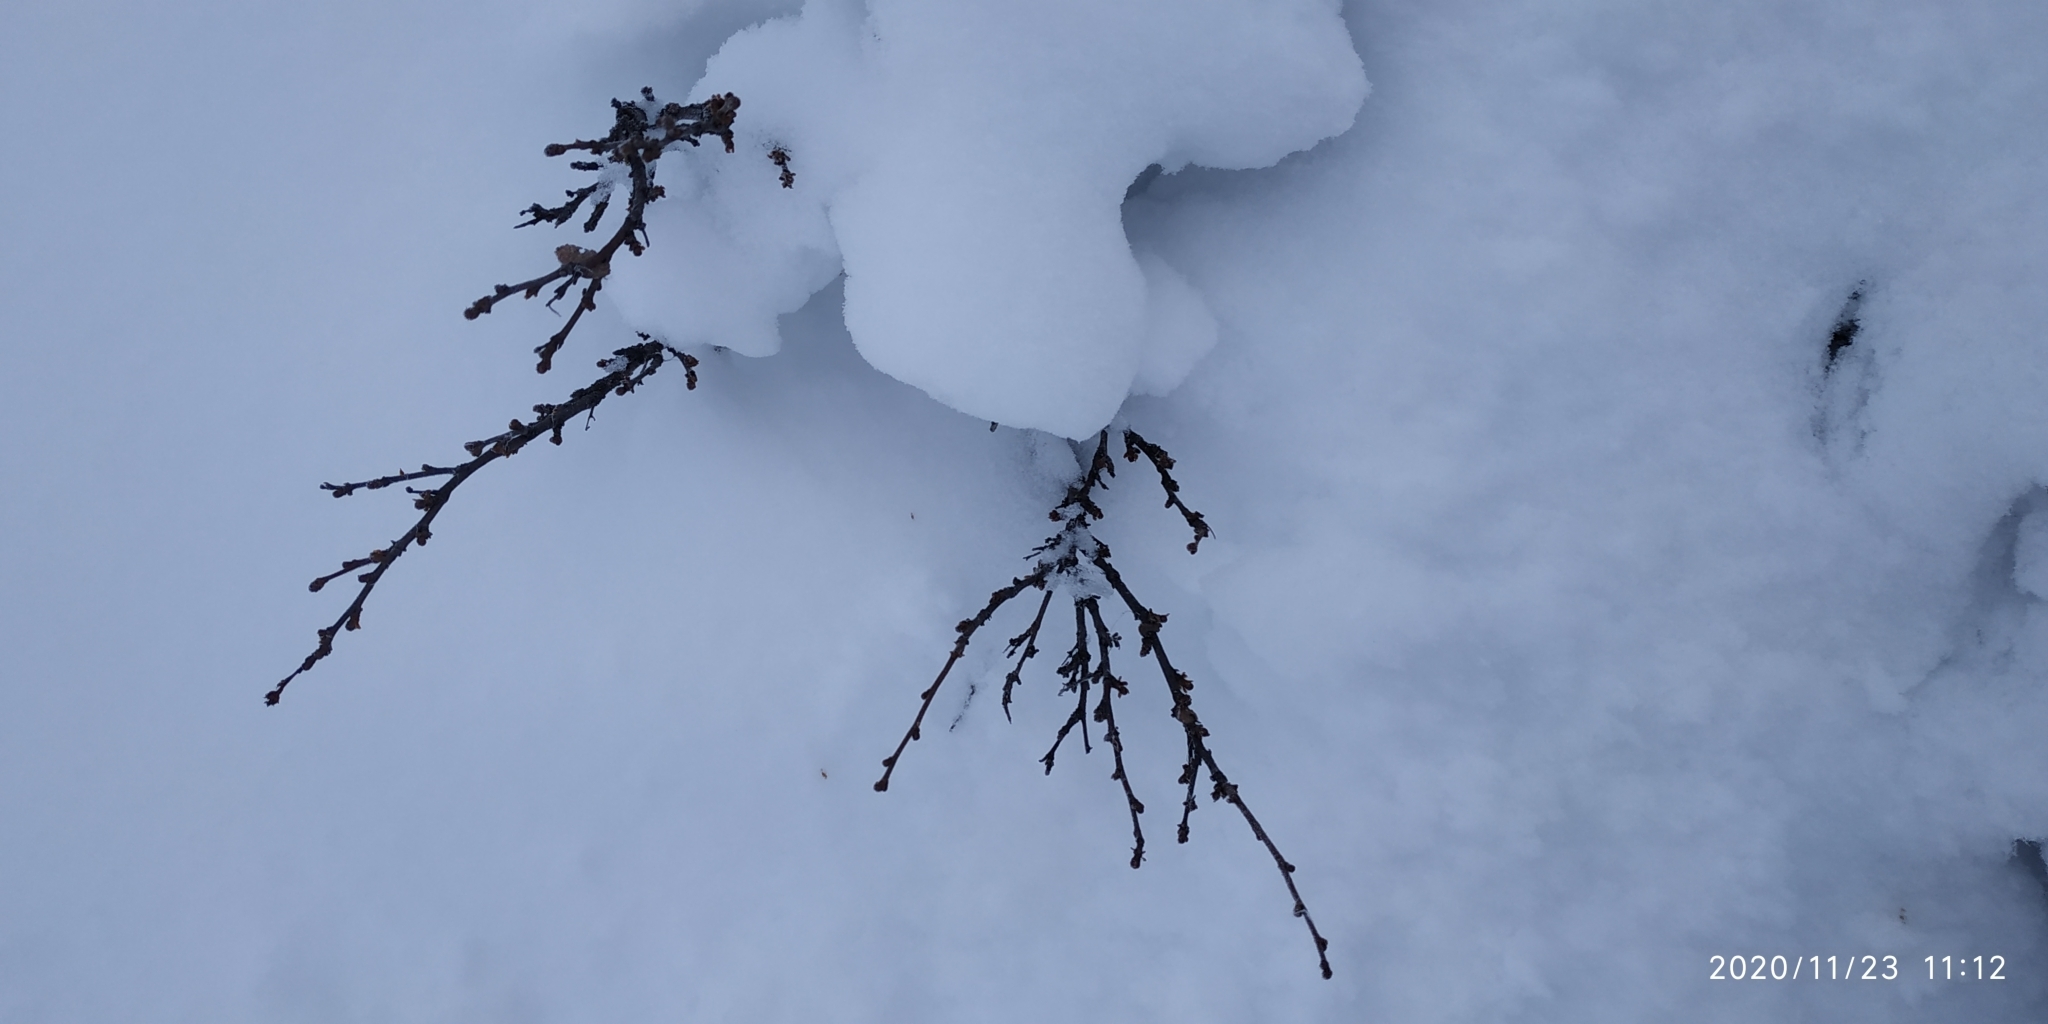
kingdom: Plantae
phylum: Tracheophyta
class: Magnoliopsida
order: Fagales
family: Betulaceae
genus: Betula
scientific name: Betula nana
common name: Arctic dwarf birch
